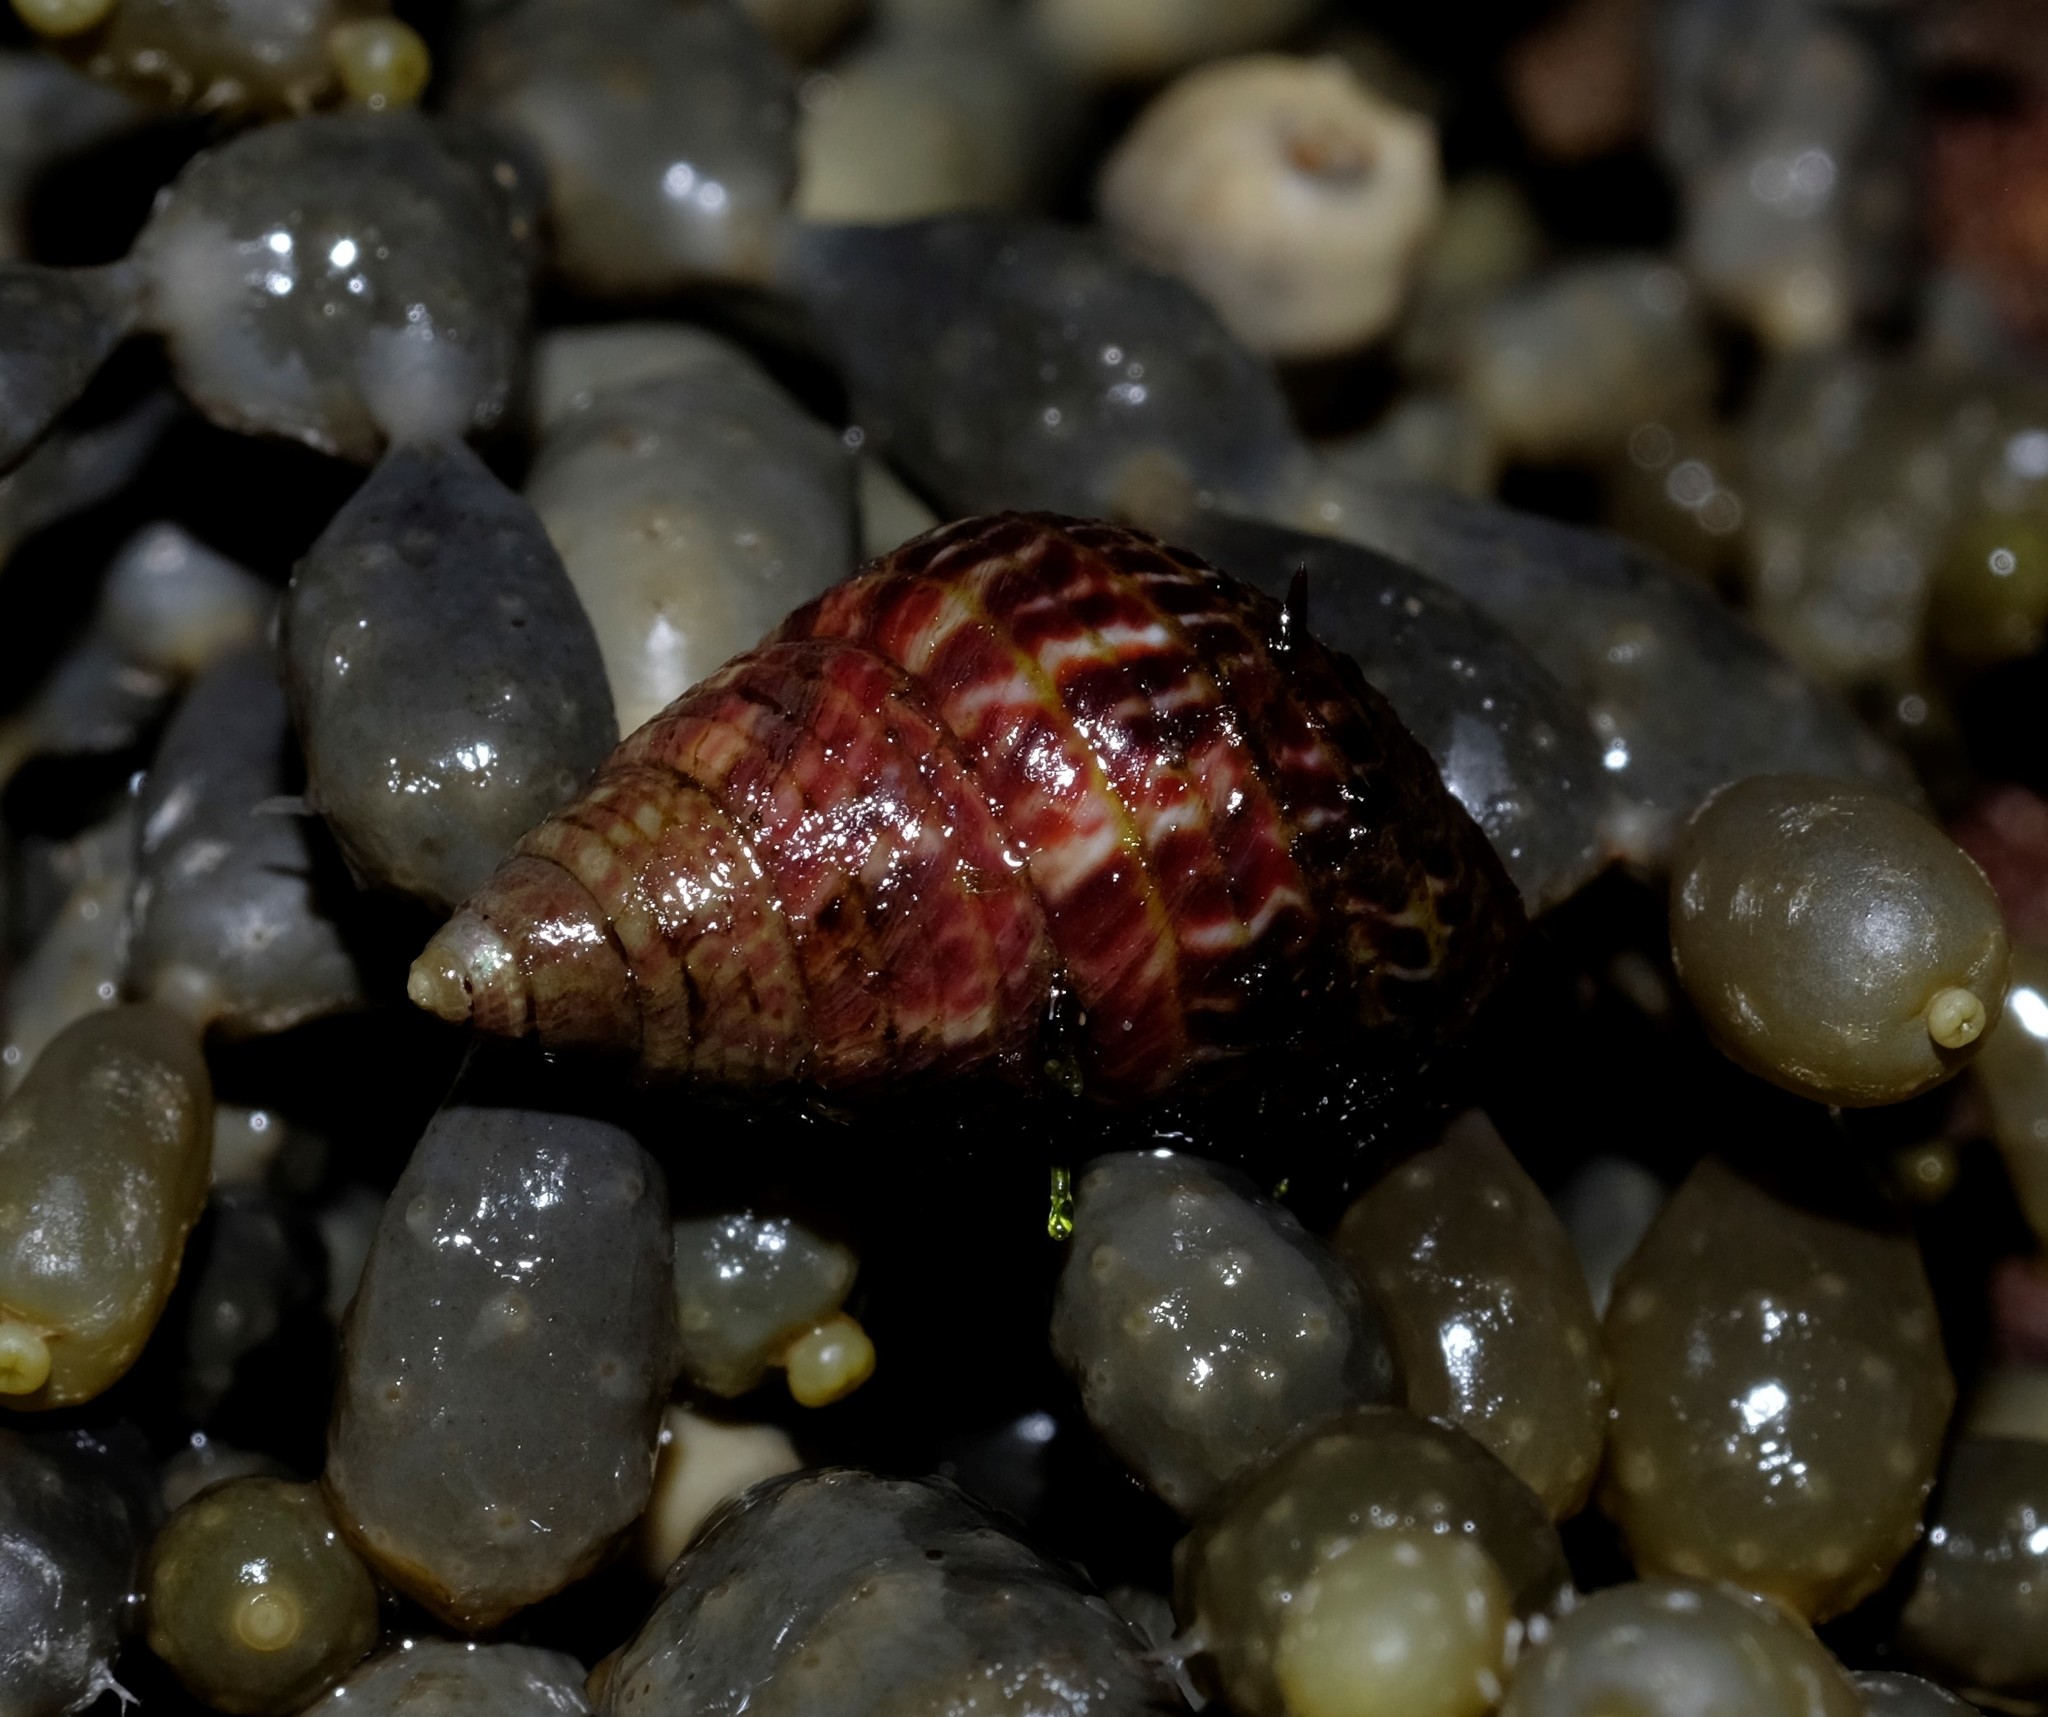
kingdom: Animalia
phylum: Mollusca
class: Gastropoda
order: Trochida
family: Trochidae
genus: Prothalotia
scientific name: Prothalotia pulcherrima
